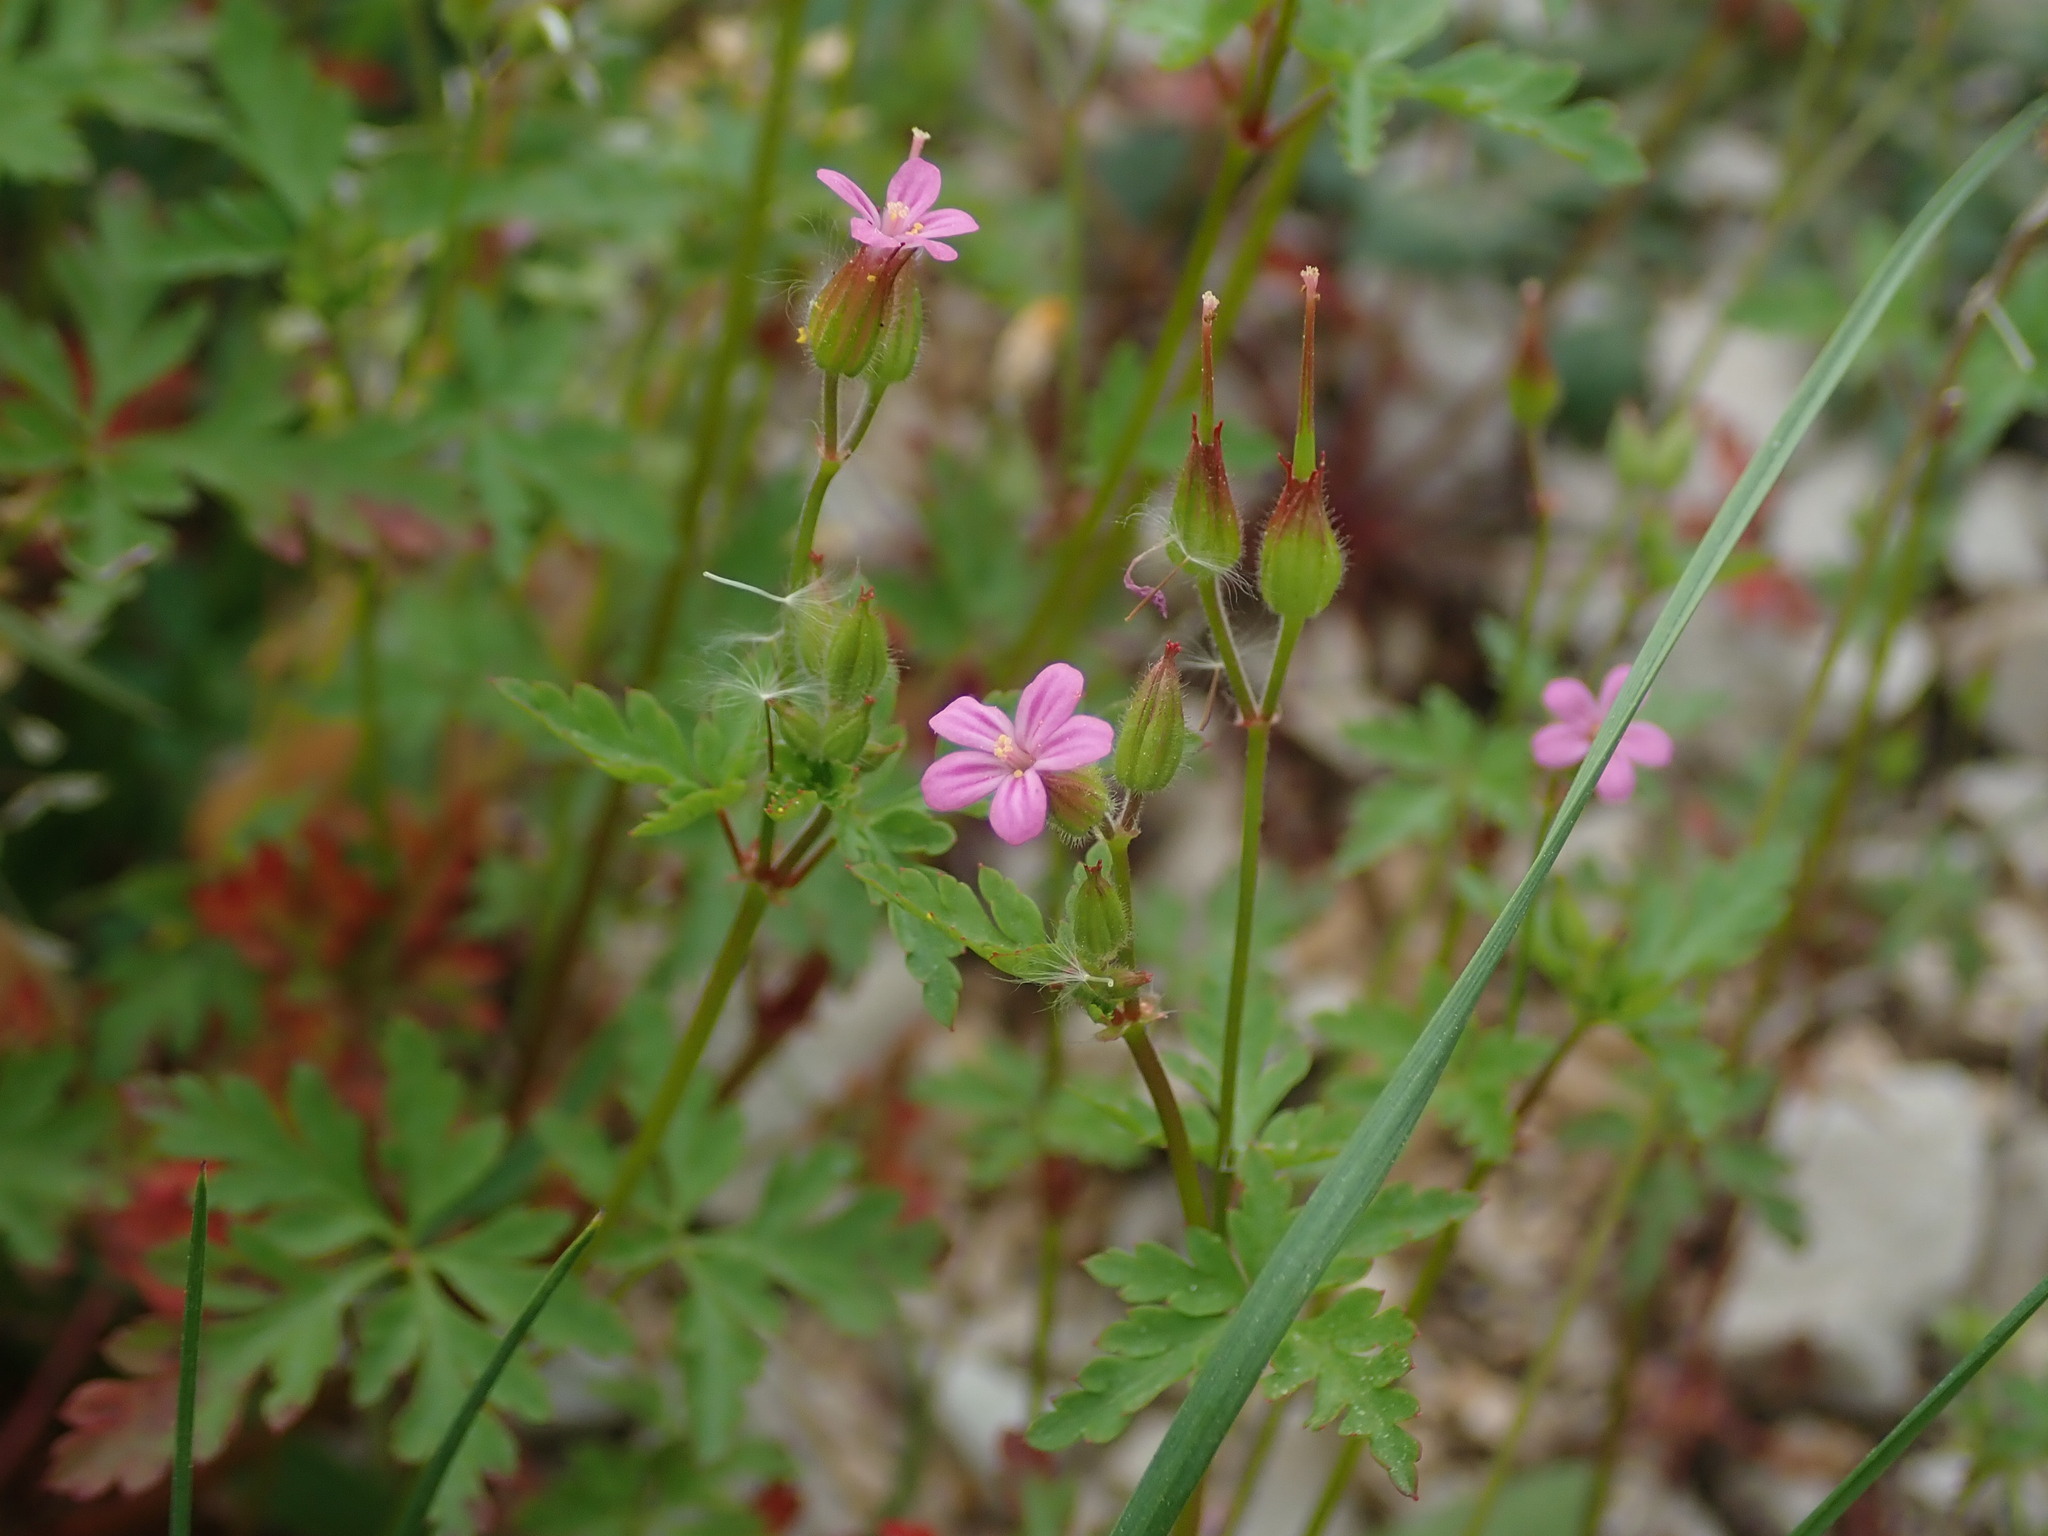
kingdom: Plantae
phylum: Tracheophyta
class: Magnoliopsida
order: Geraniales
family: Geraniaceae
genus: Geranium
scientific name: Geranium purpureum
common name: Little-robin
